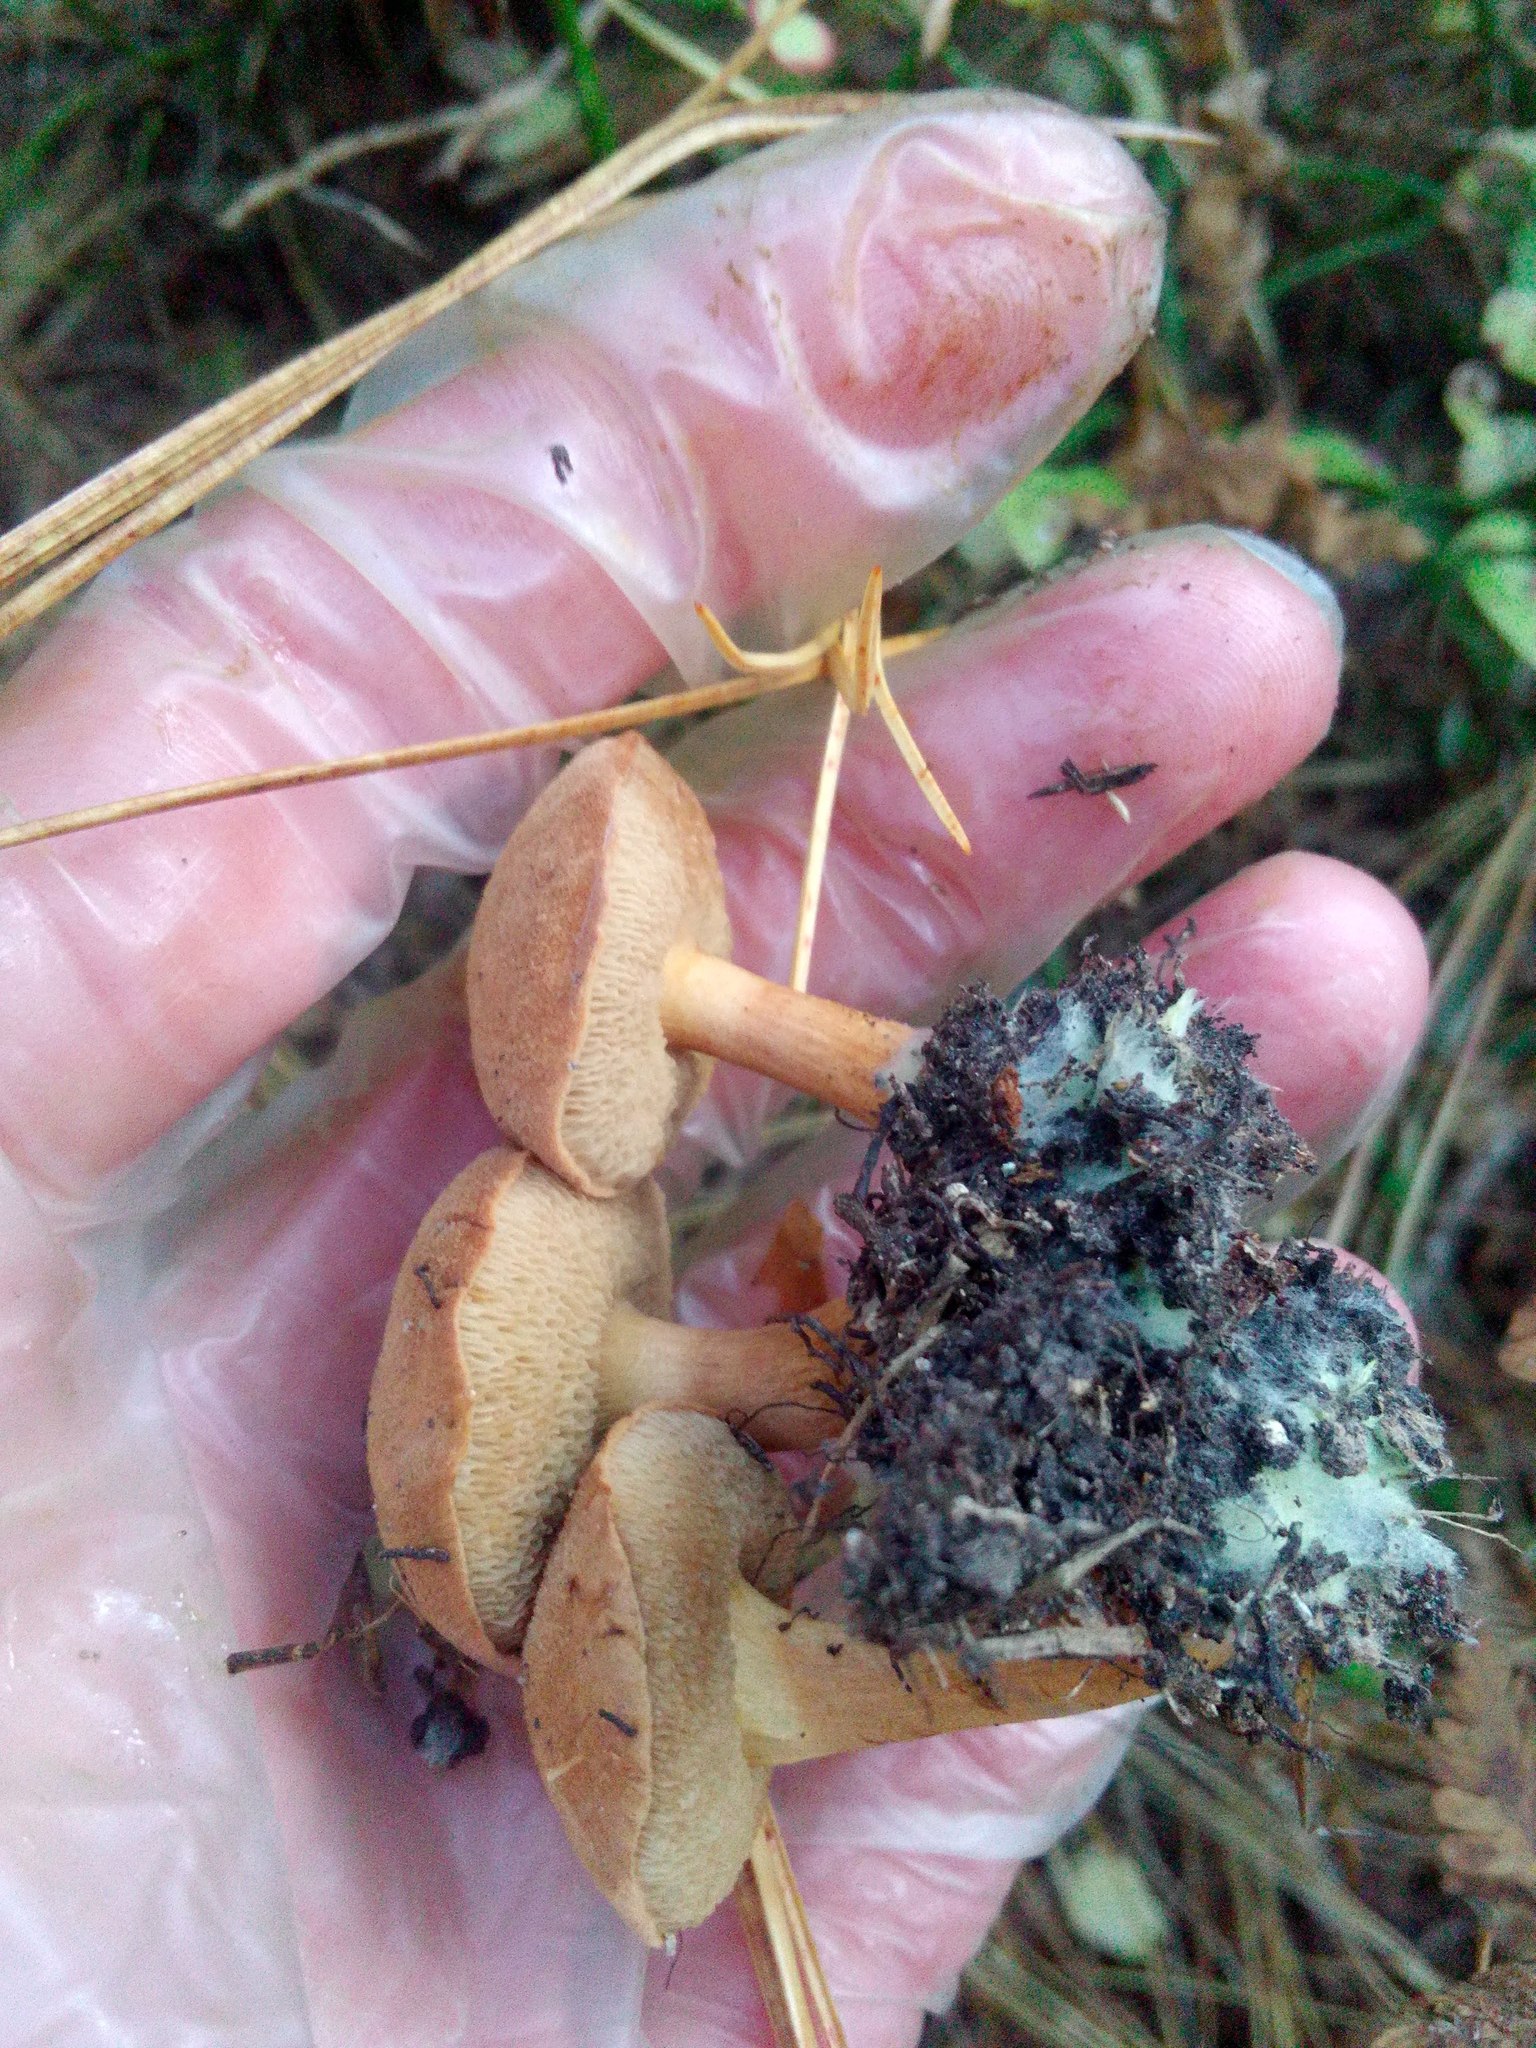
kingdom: Fungi
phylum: Basidiomycota
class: Agaricomycetes
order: Boletales
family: Boletaceae
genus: Chalciporus
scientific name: Chalciporus piperatus
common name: Peppery bolete
